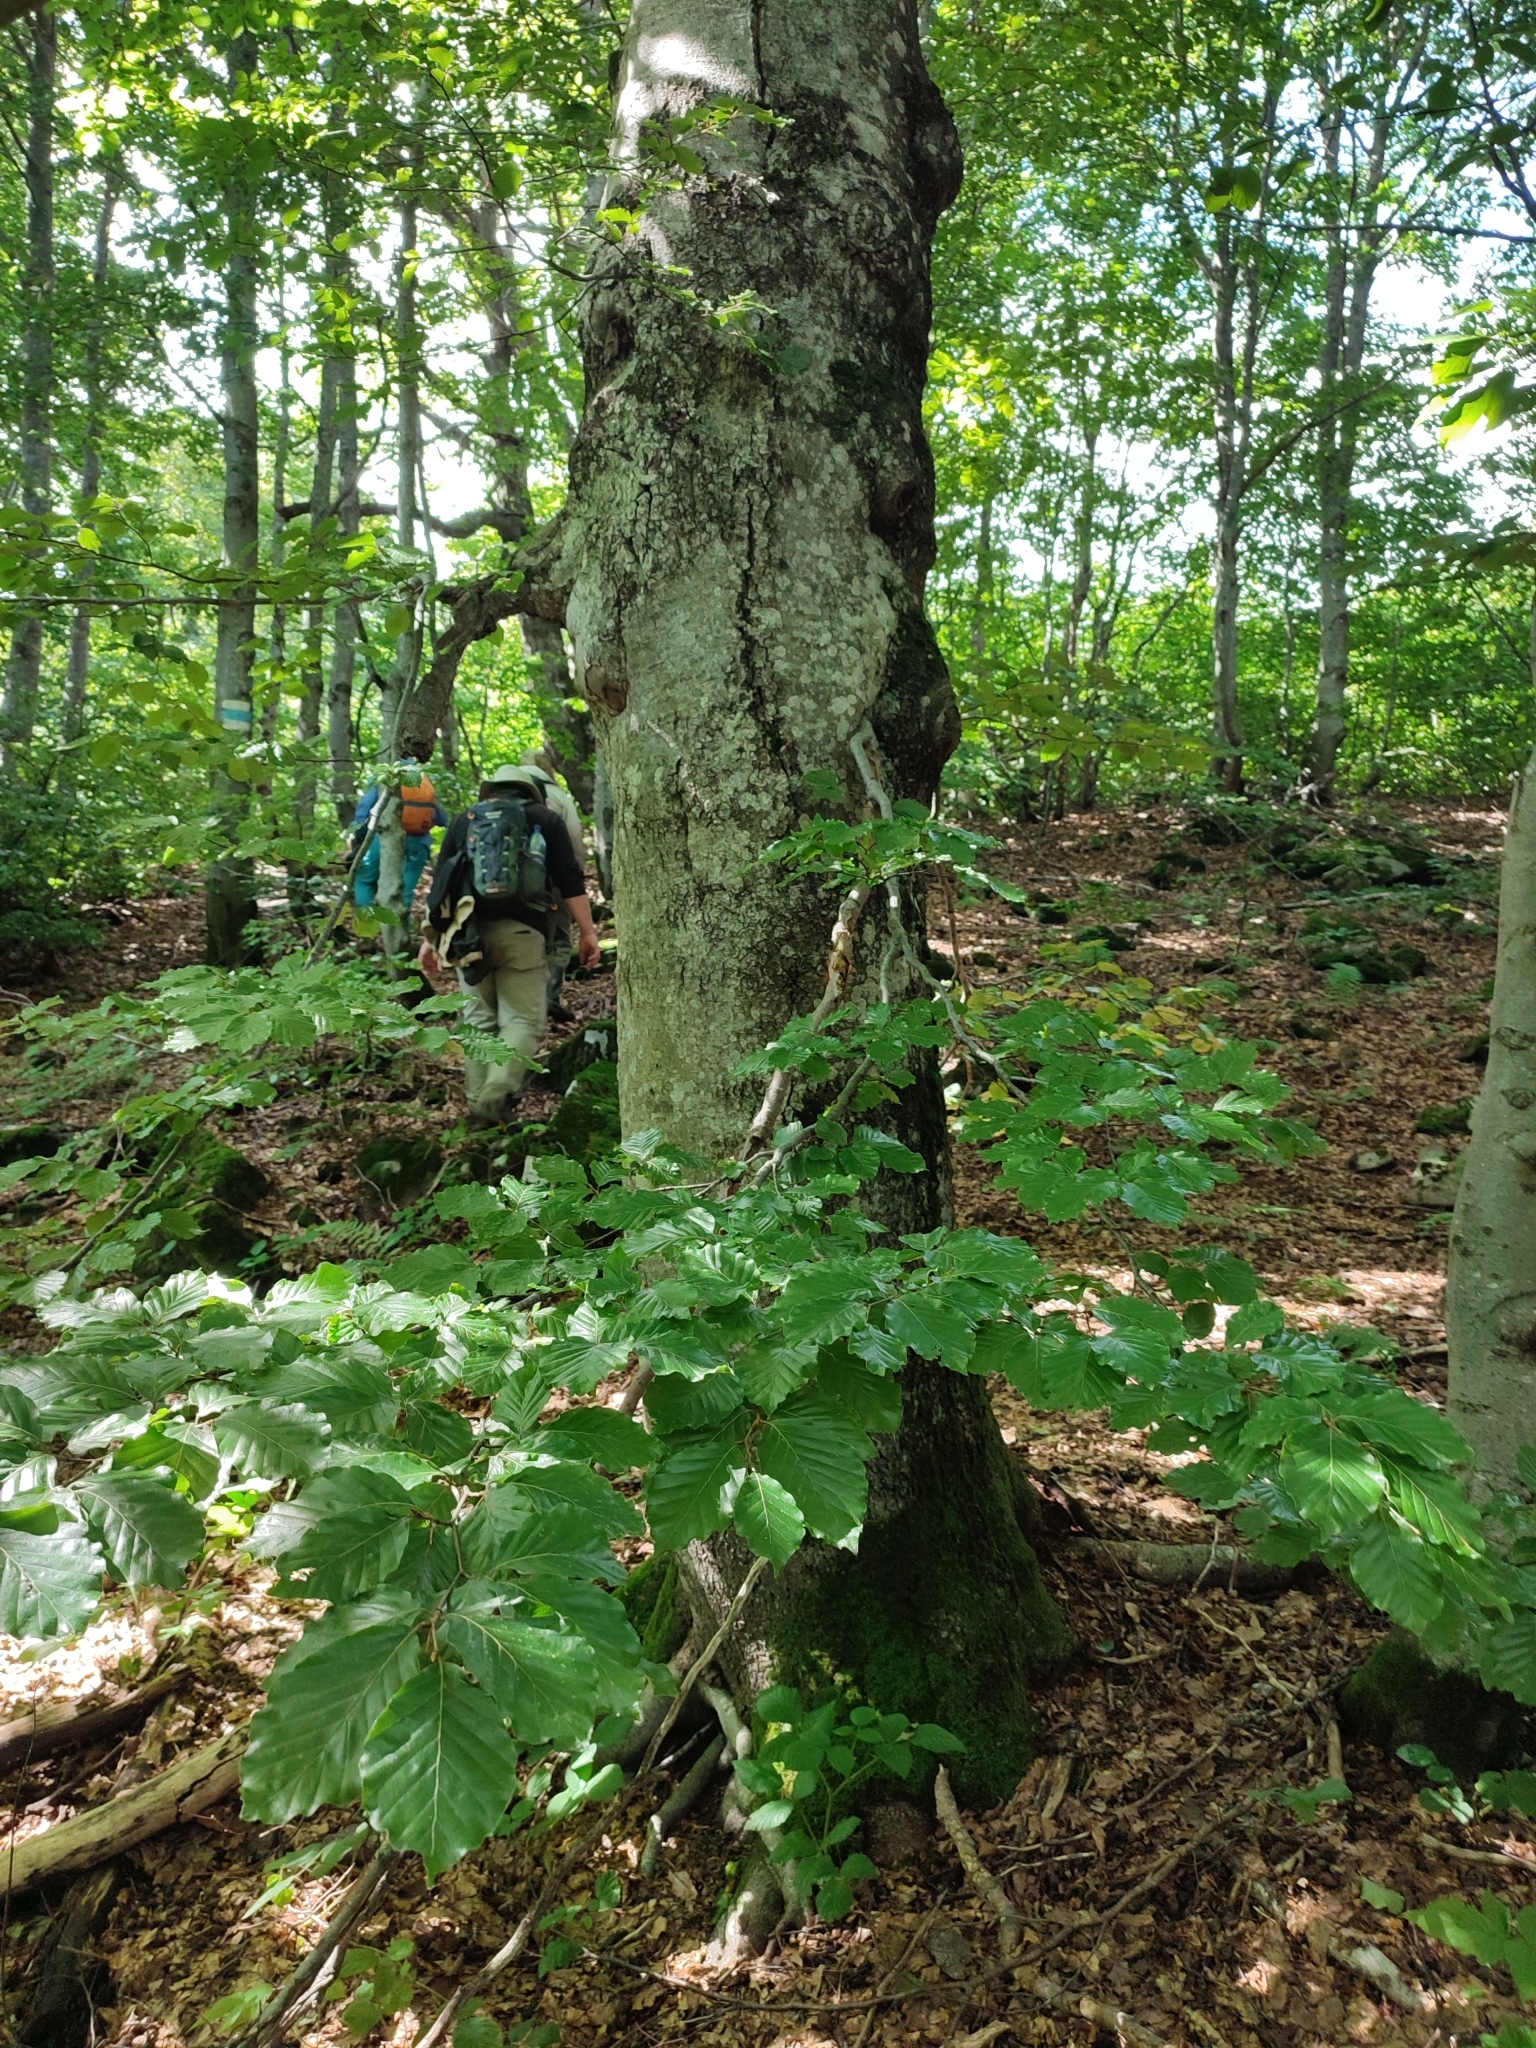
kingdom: Plantae
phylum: Tracheophyta
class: Magnoliopsida
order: Fagales
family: Fagaceae
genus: Fagus
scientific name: Fagus sylvatica
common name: Beech
